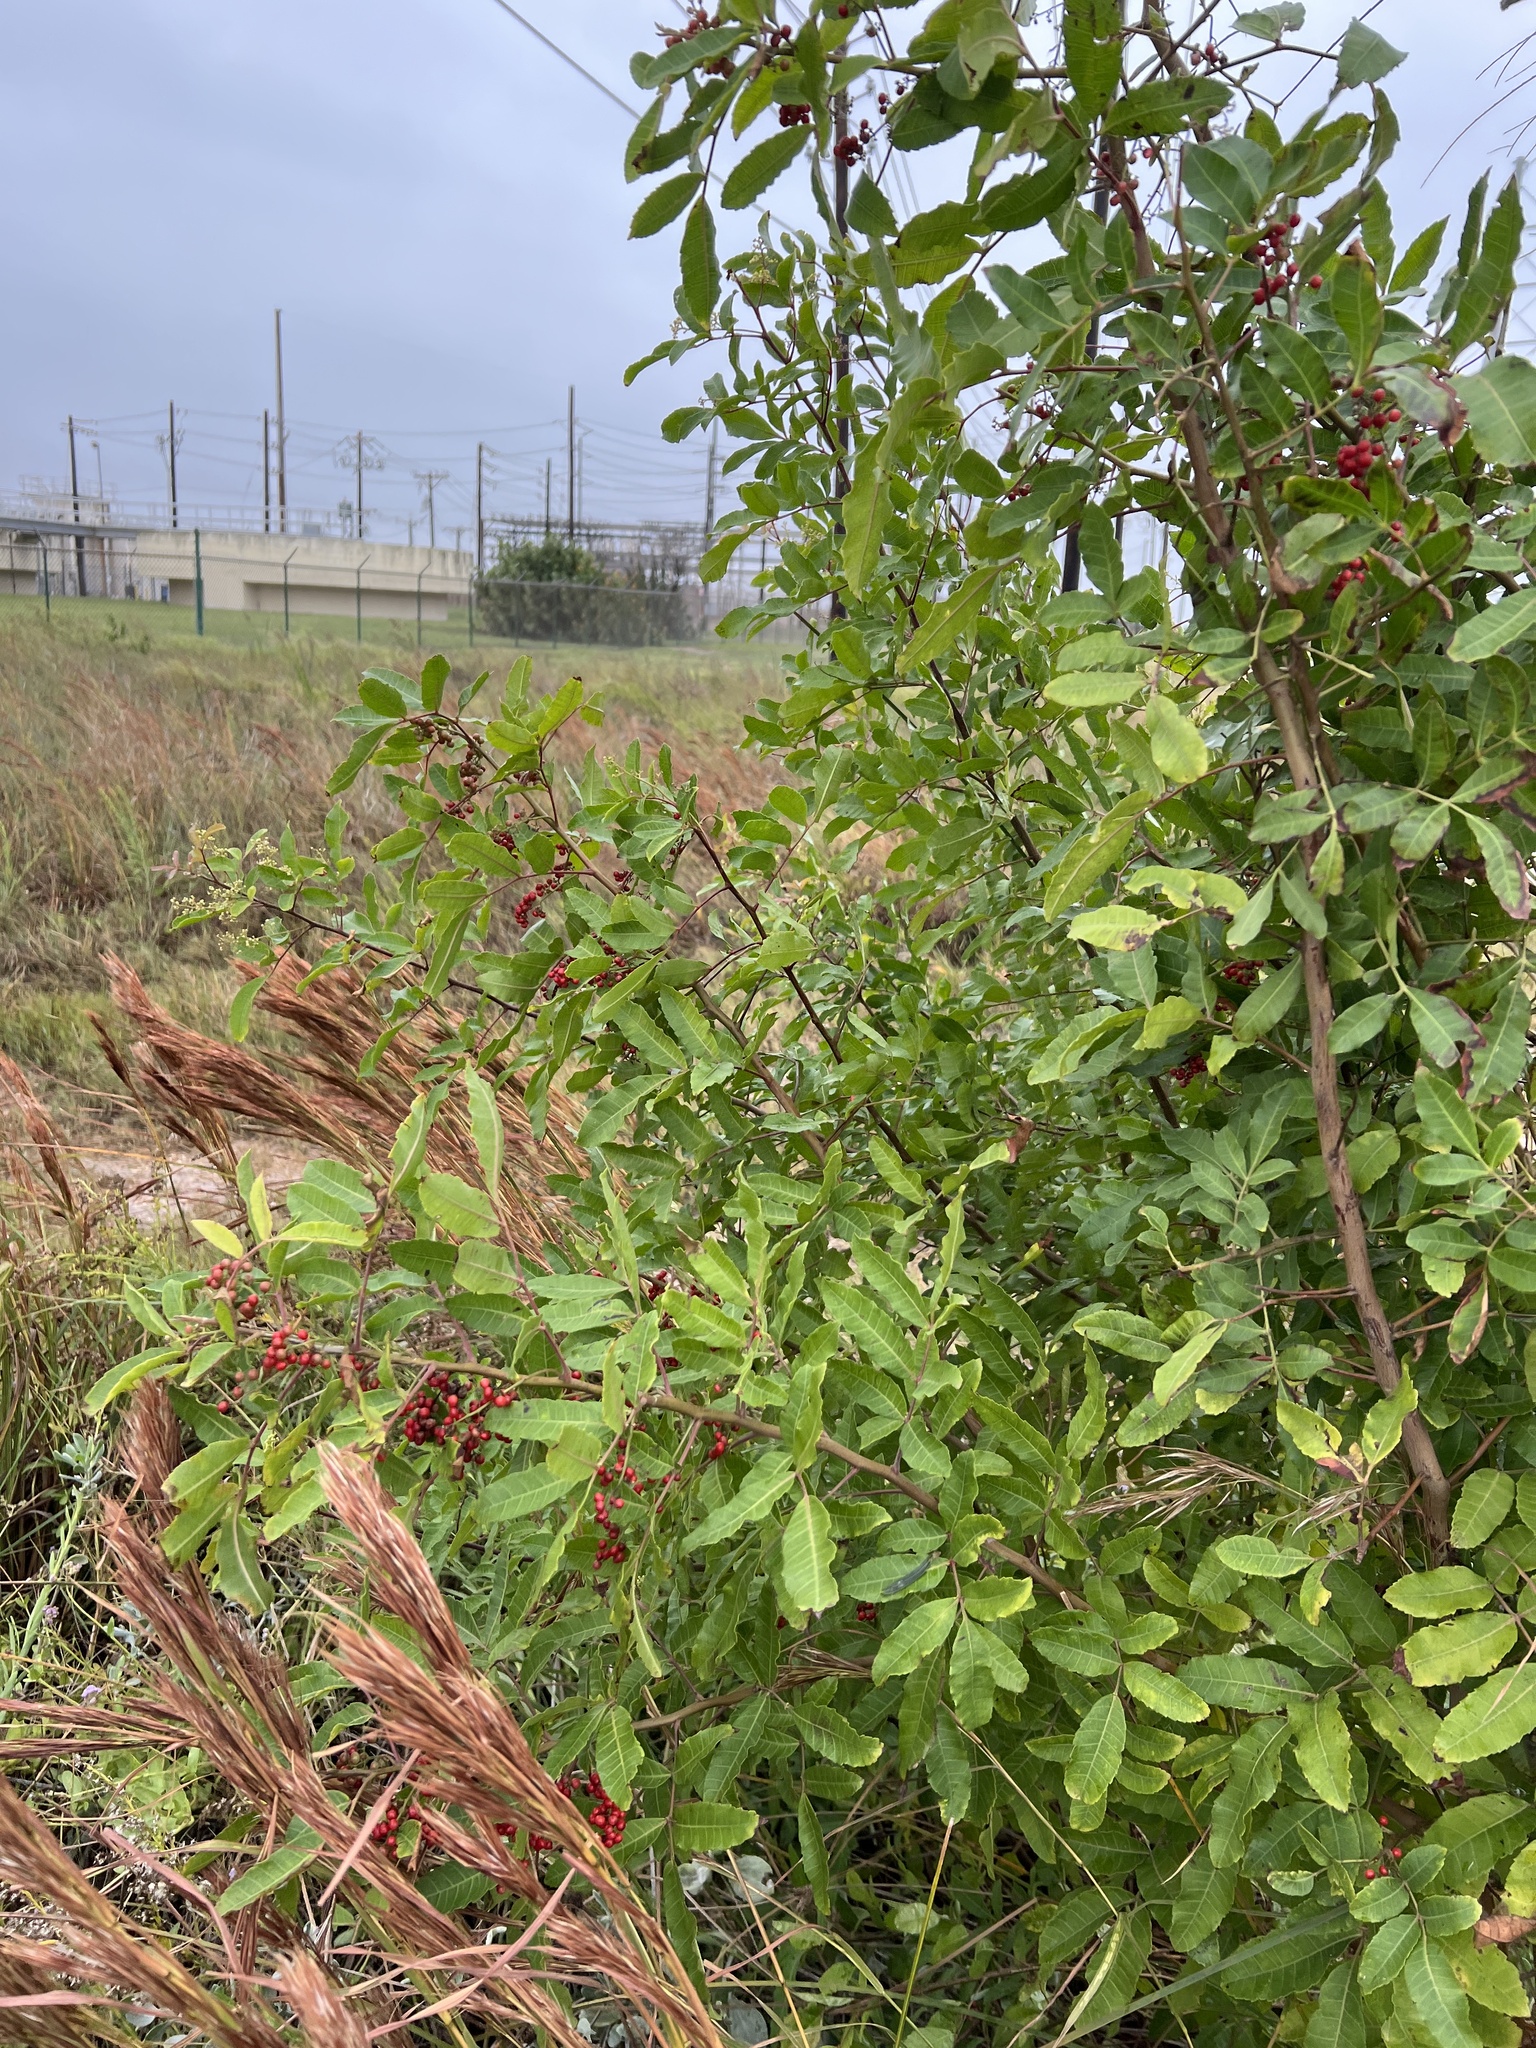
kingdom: Plantae
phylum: Tracheophyta
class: Magnoliopsida
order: Sapindales
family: Anacardiaceae
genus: Schinus
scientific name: Schinus terebinthifolia
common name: Brazilian peppertree
